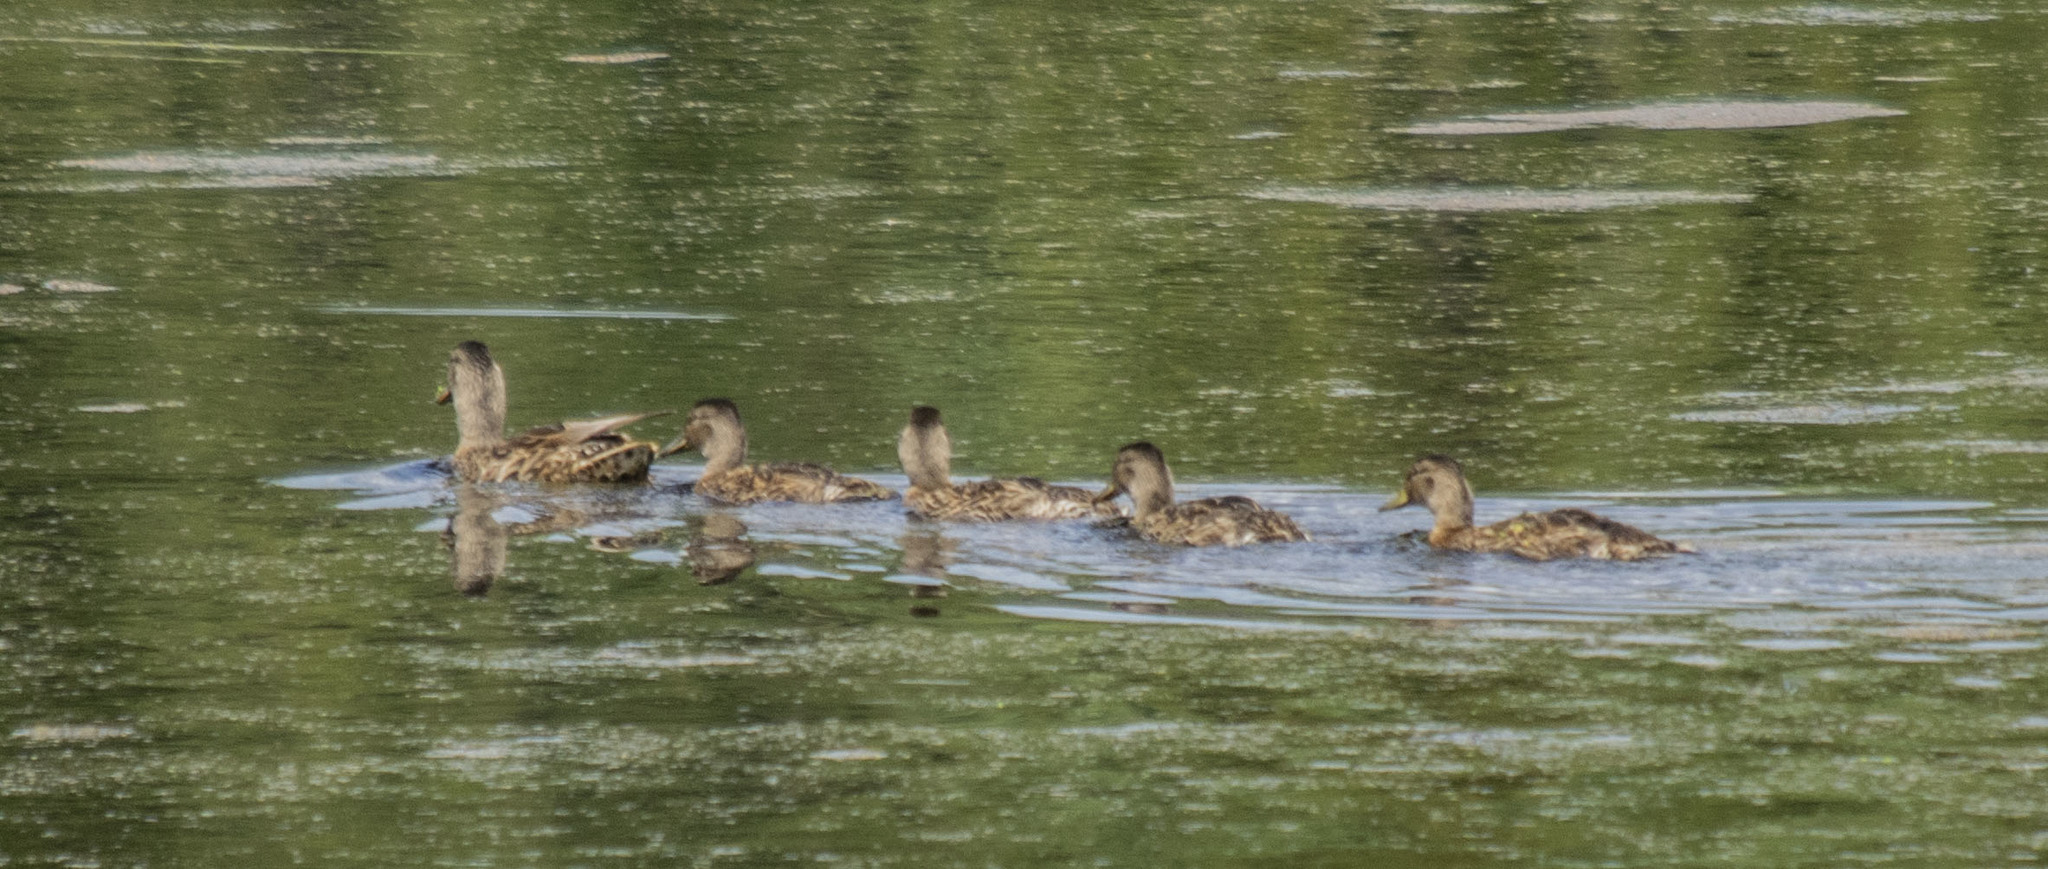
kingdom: Animalia
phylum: Chordata
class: Aves
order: Anseriformes
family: Anatidae
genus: Anas
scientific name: Anas platyrhynchos
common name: Mallard
